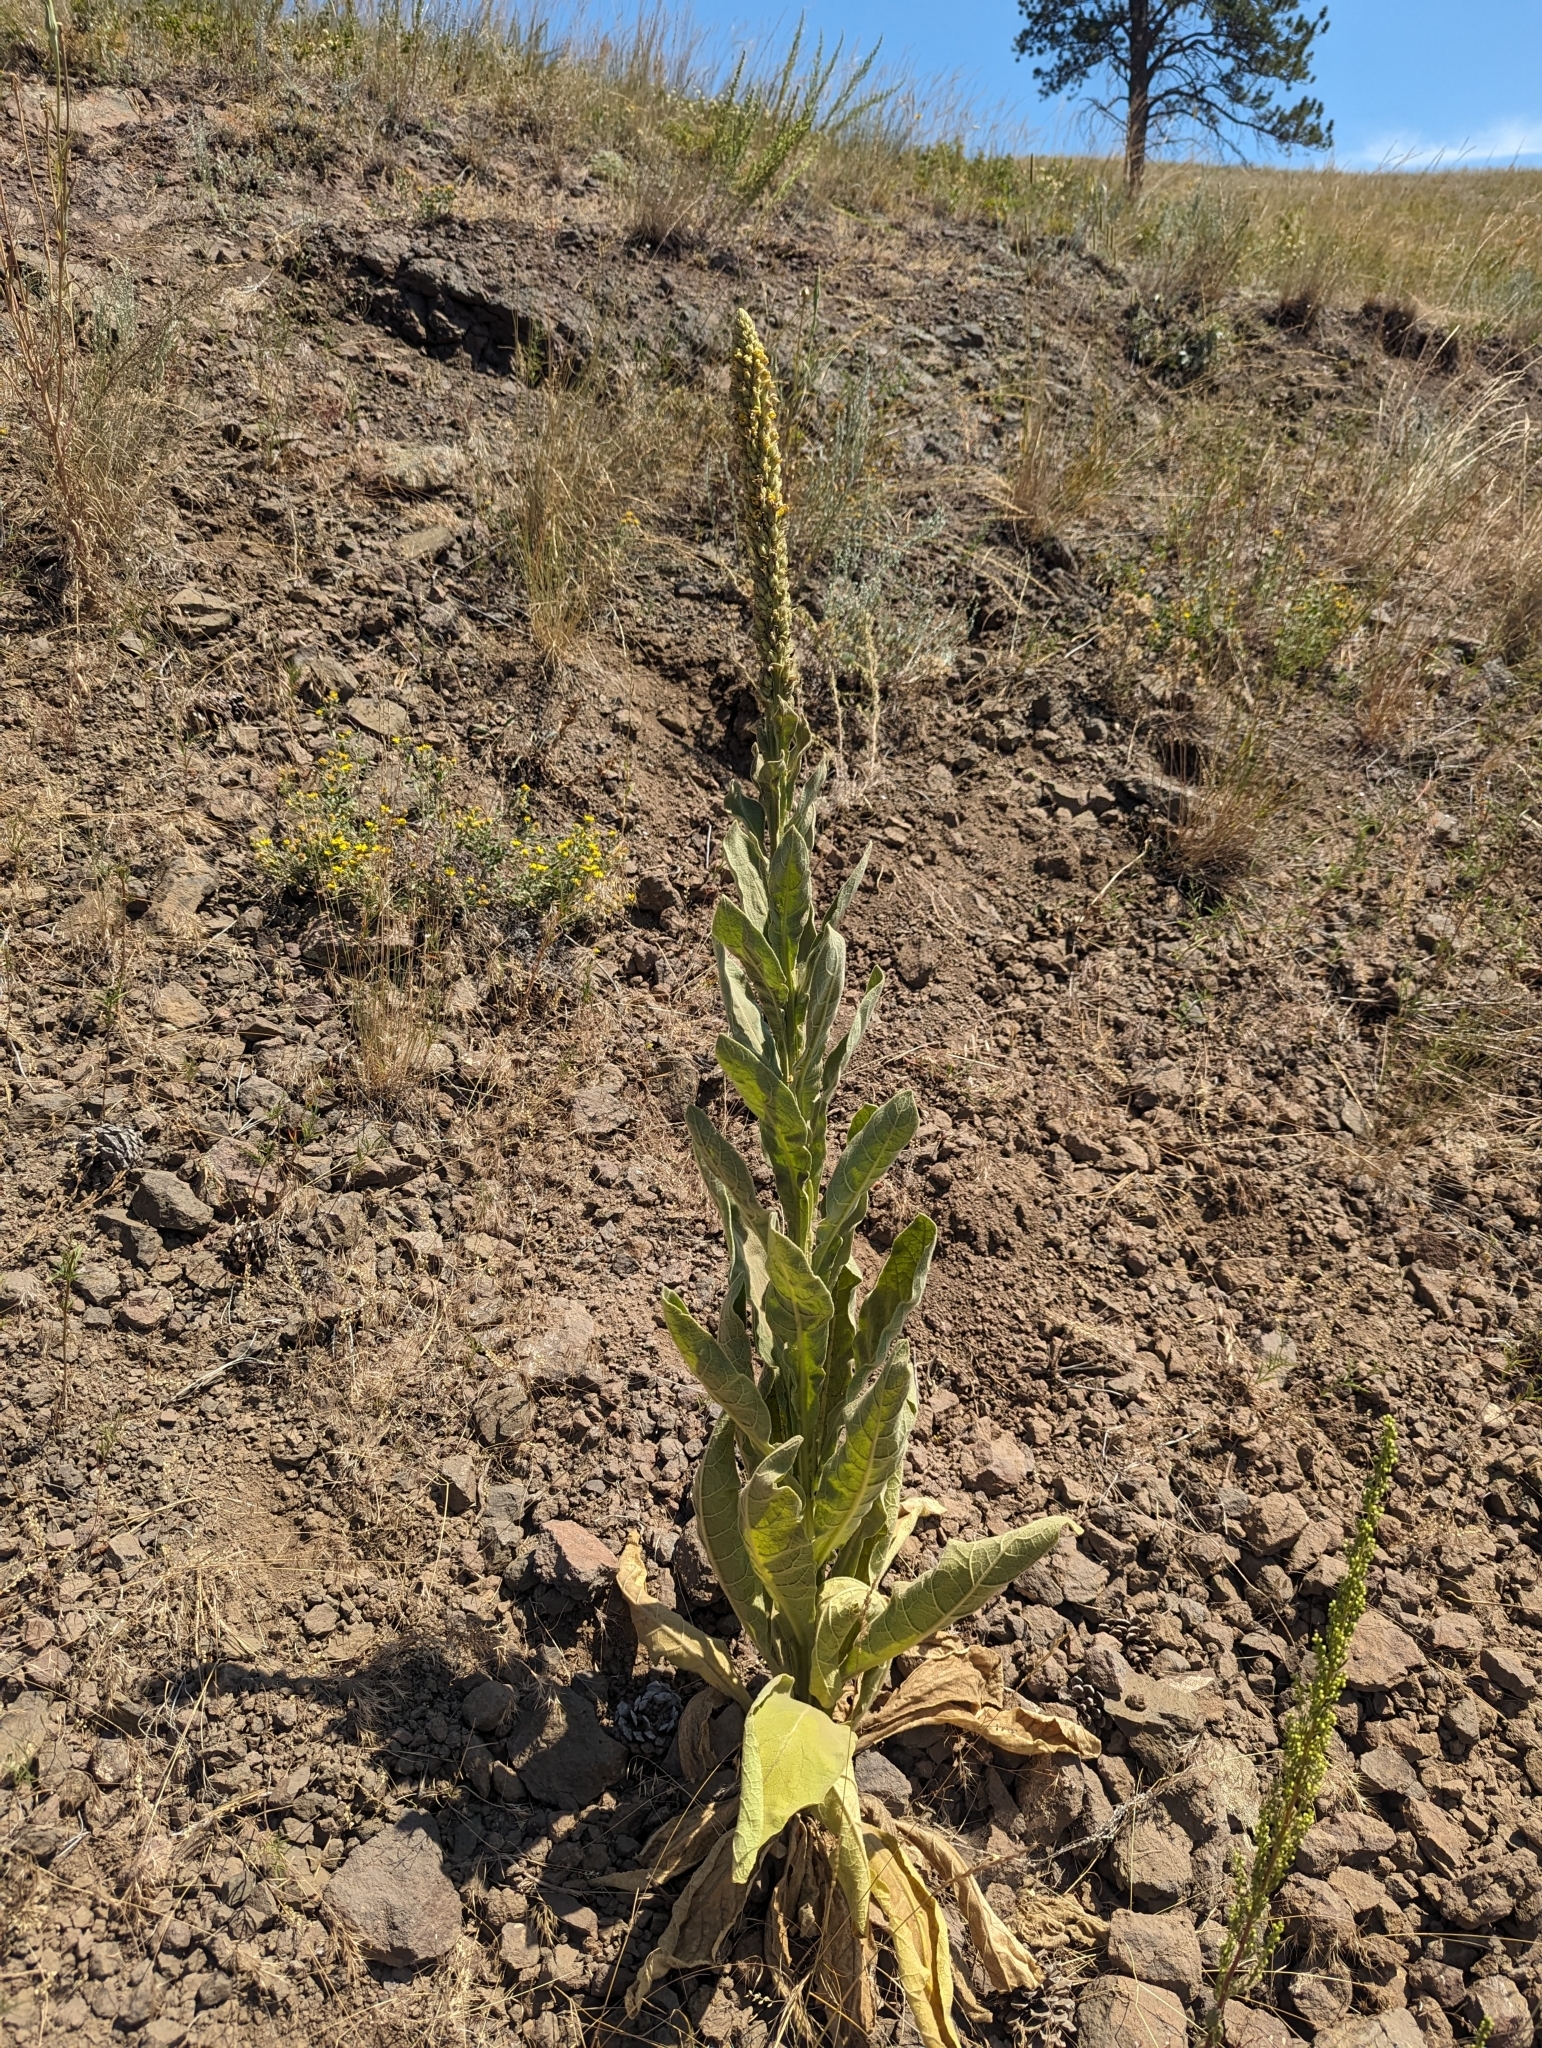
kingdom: Plantae
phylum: Tracheophyta
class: Magnoliopsida
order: Lamiales
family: Scrophulariaceae
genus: Verbascum
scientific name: Verbascum thapsus
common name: Common mullein
